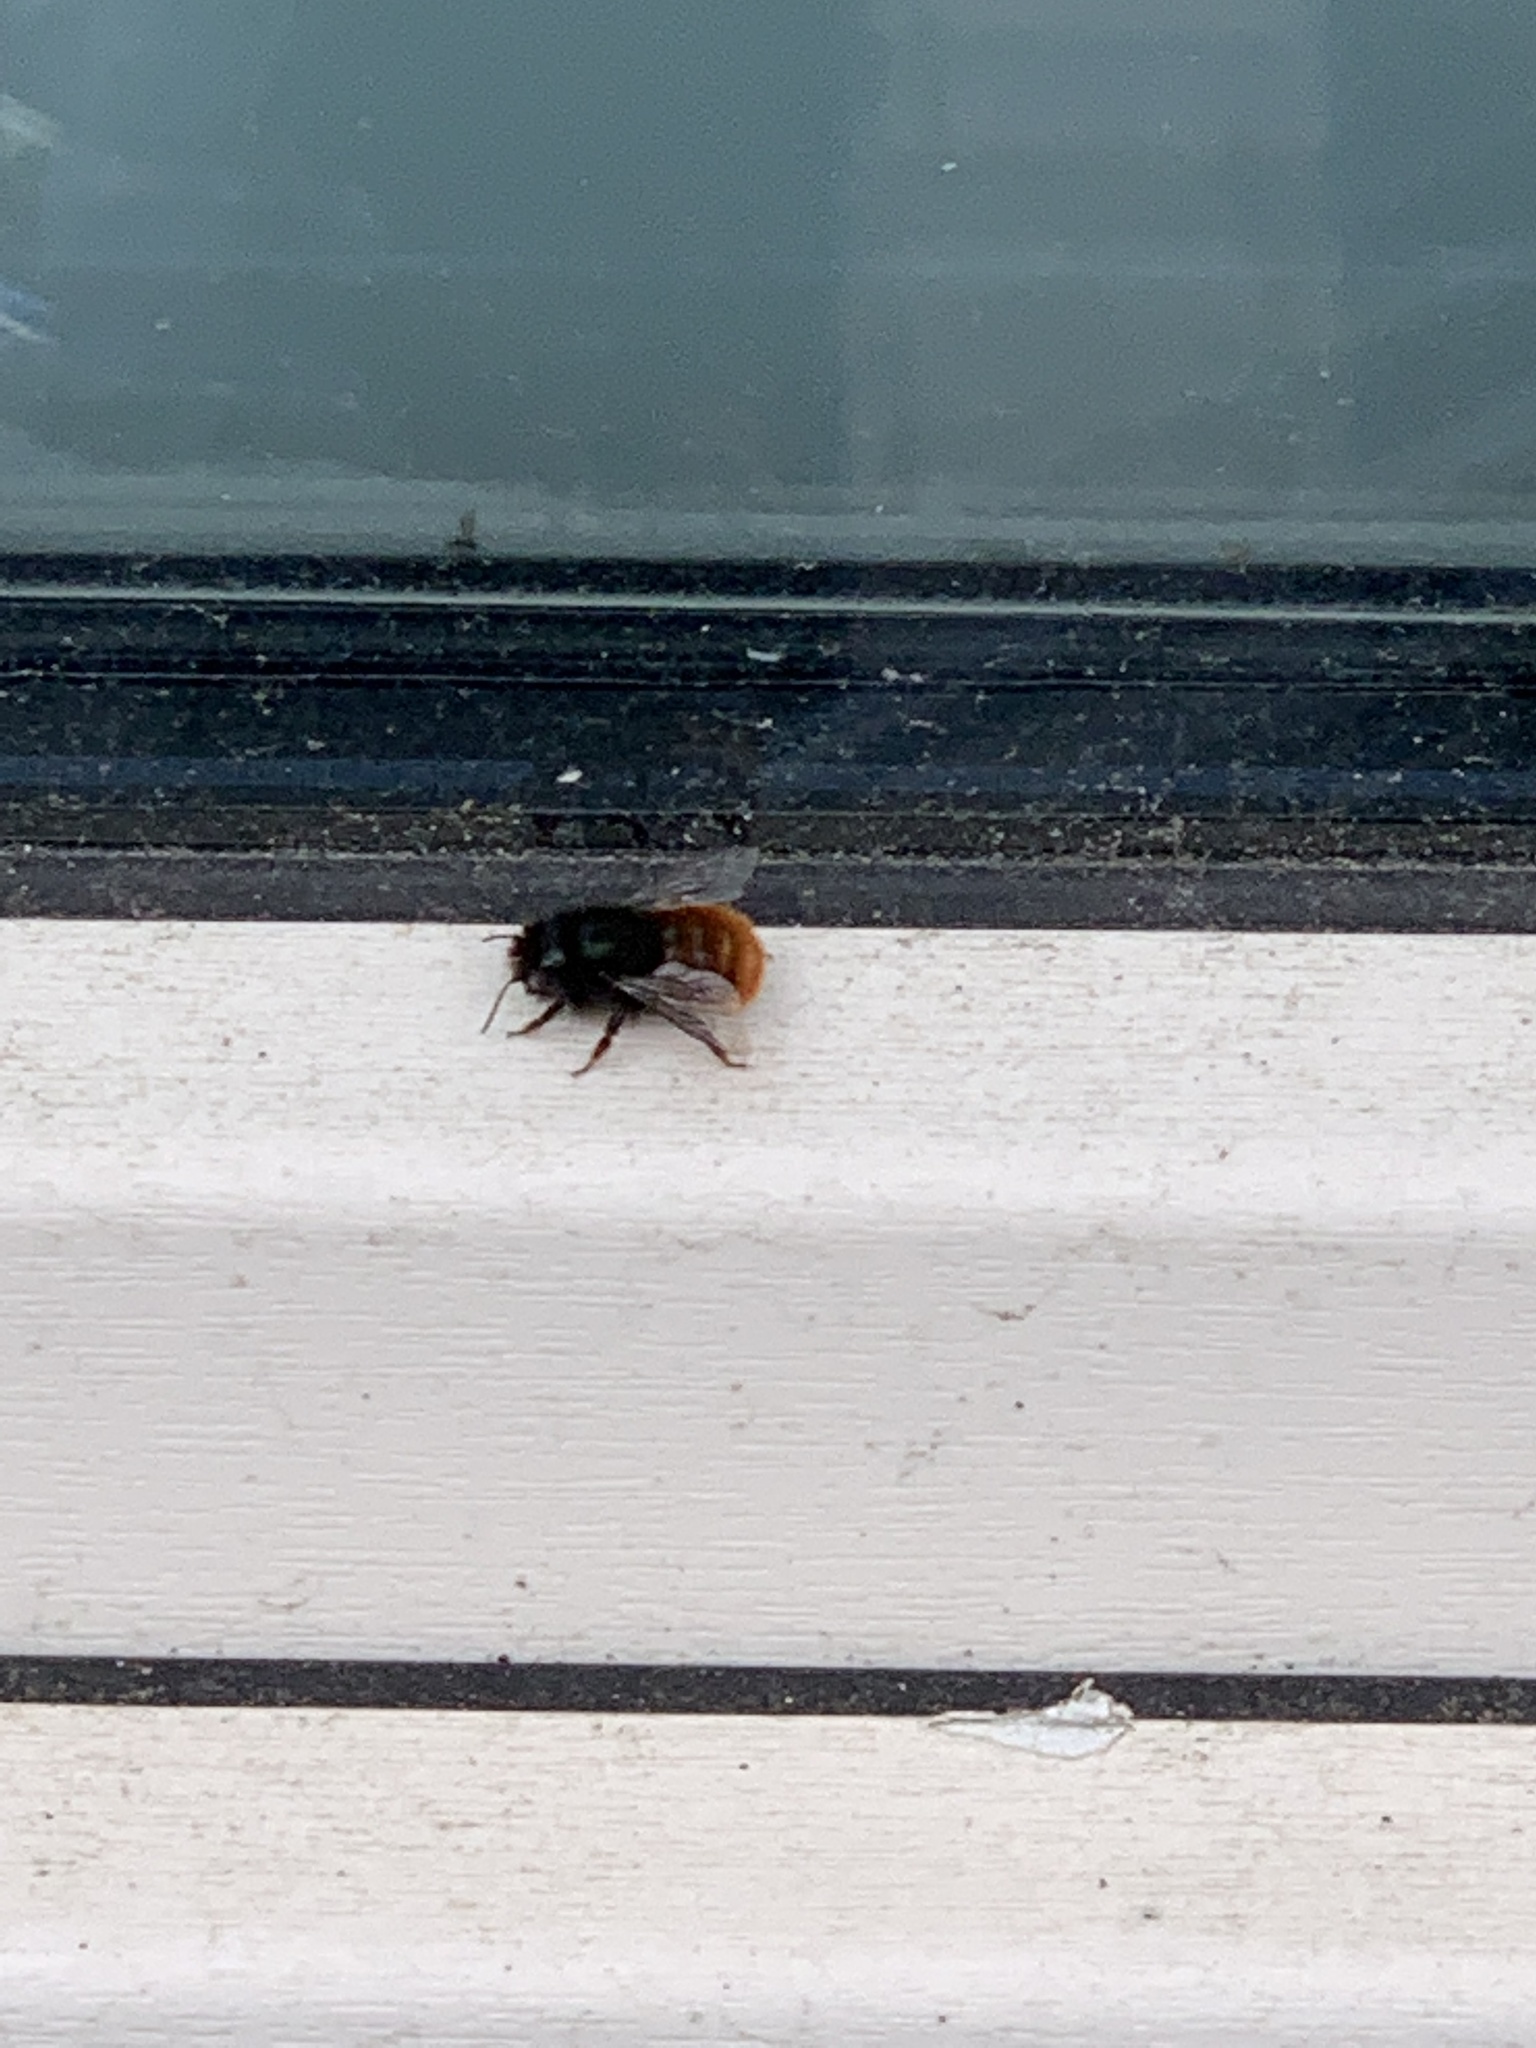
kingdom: Animalia
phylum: Arthropoda
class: Insecta
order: Hymenoptera
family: Megachilidae
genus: Osmia
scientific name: Osmia cornuta
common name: Mason bee
